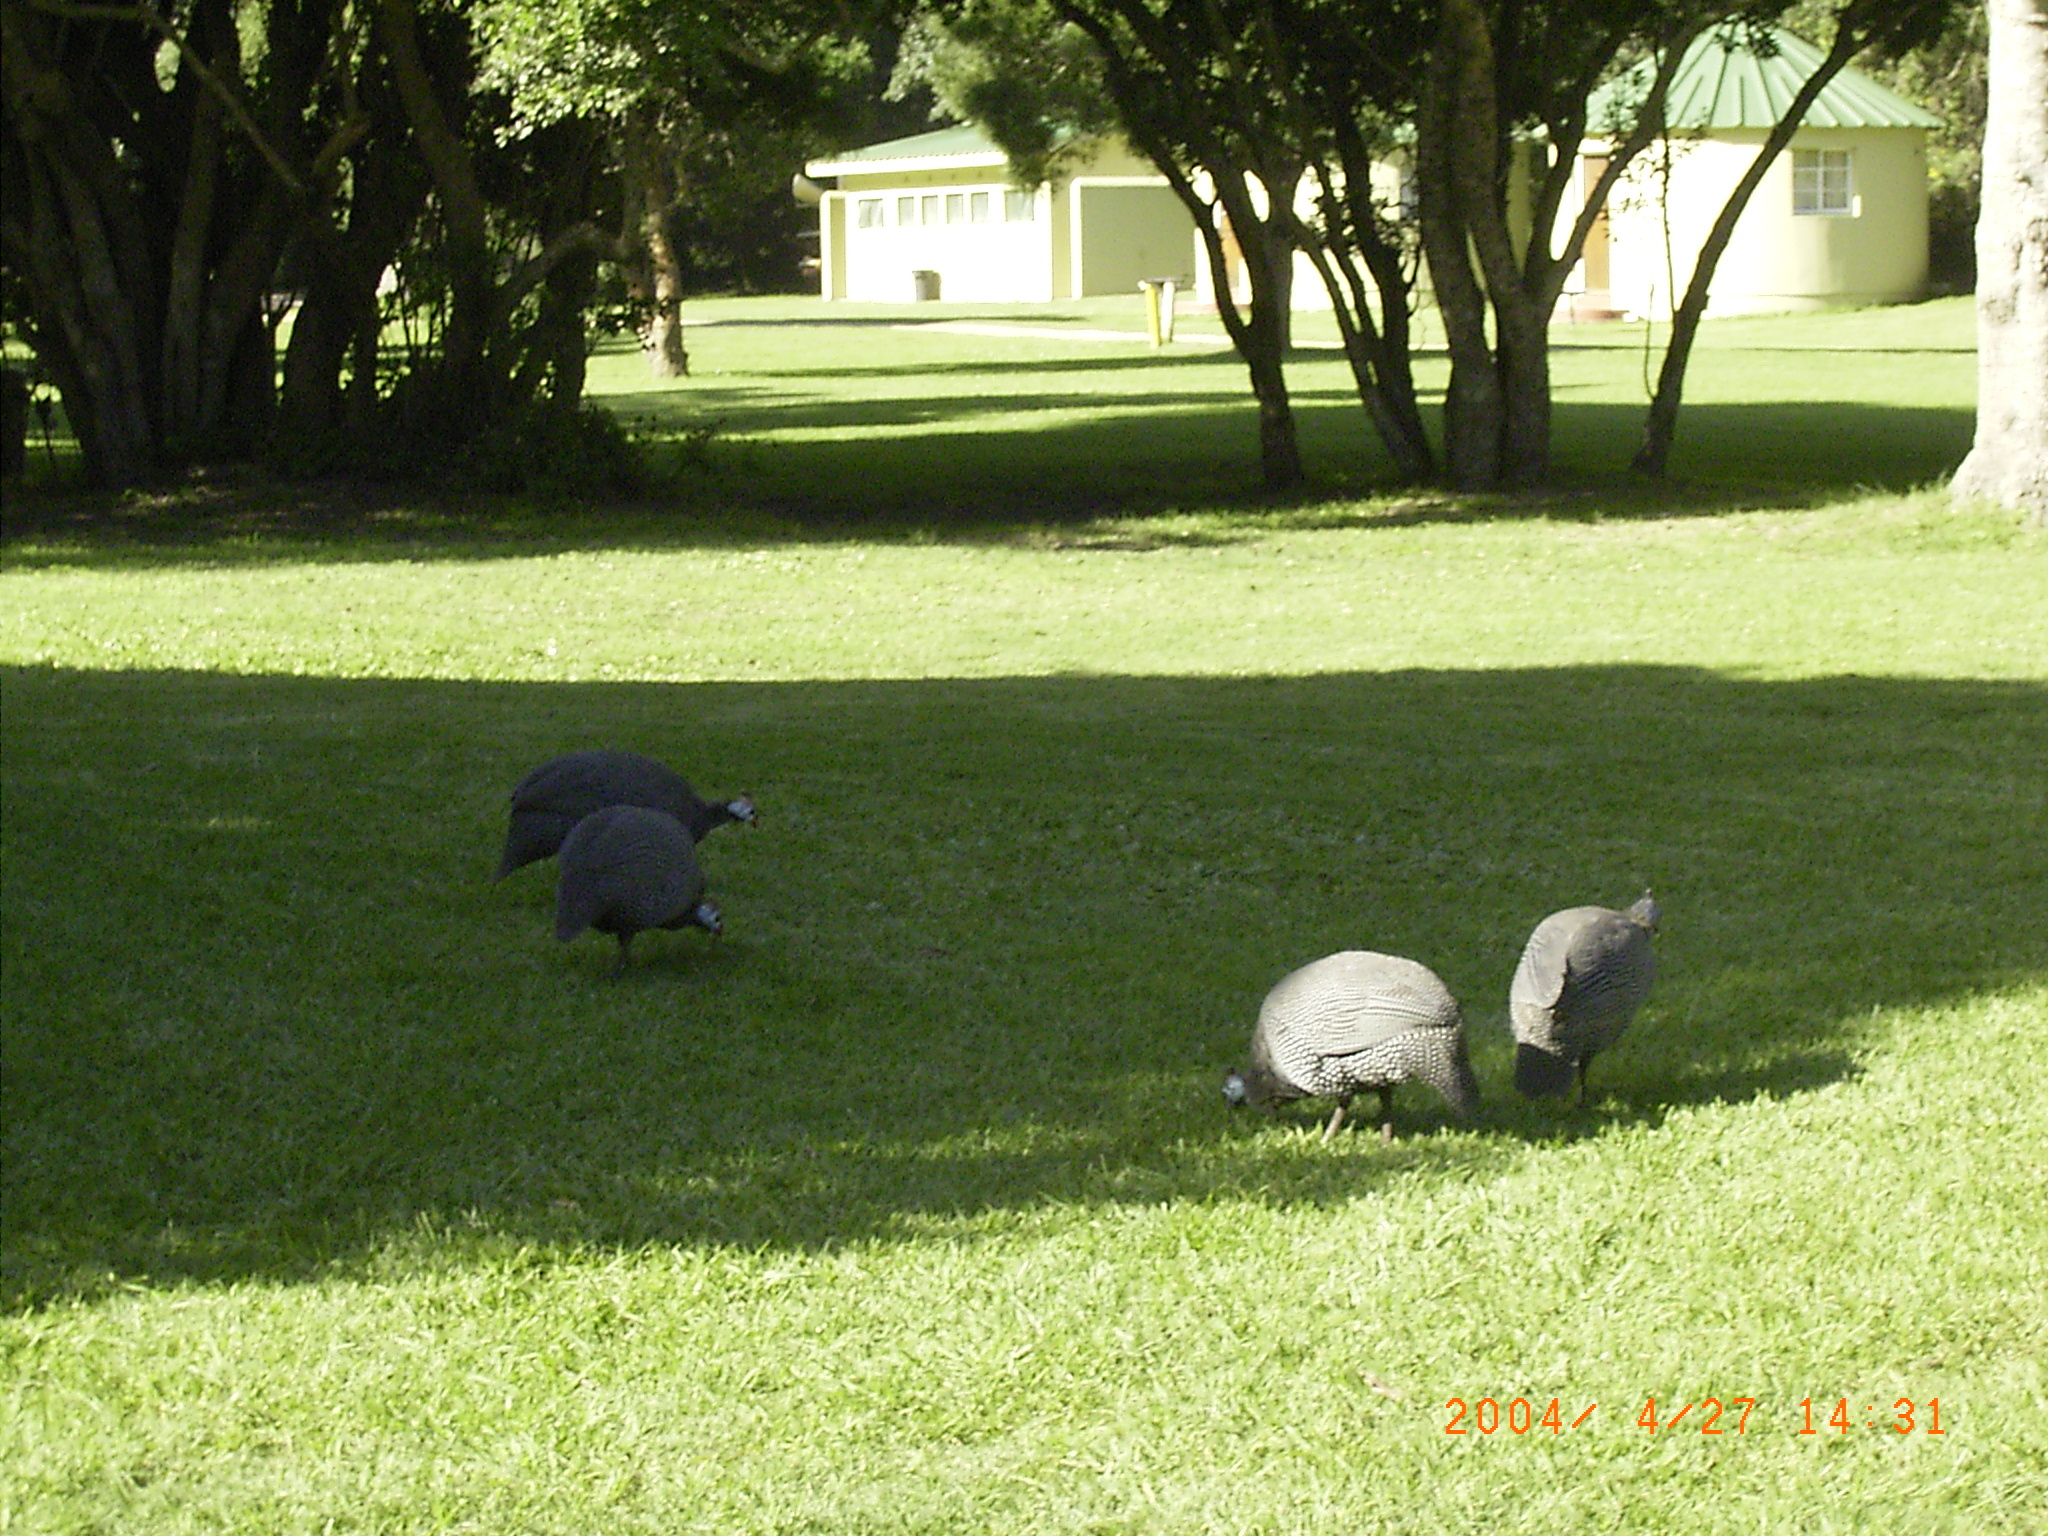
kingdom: Animalia
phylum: Chordata
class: Aves
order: Galliformes
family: Numididae
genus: Numida
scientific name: Numida meleagris
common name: Helmeted guineafowl
